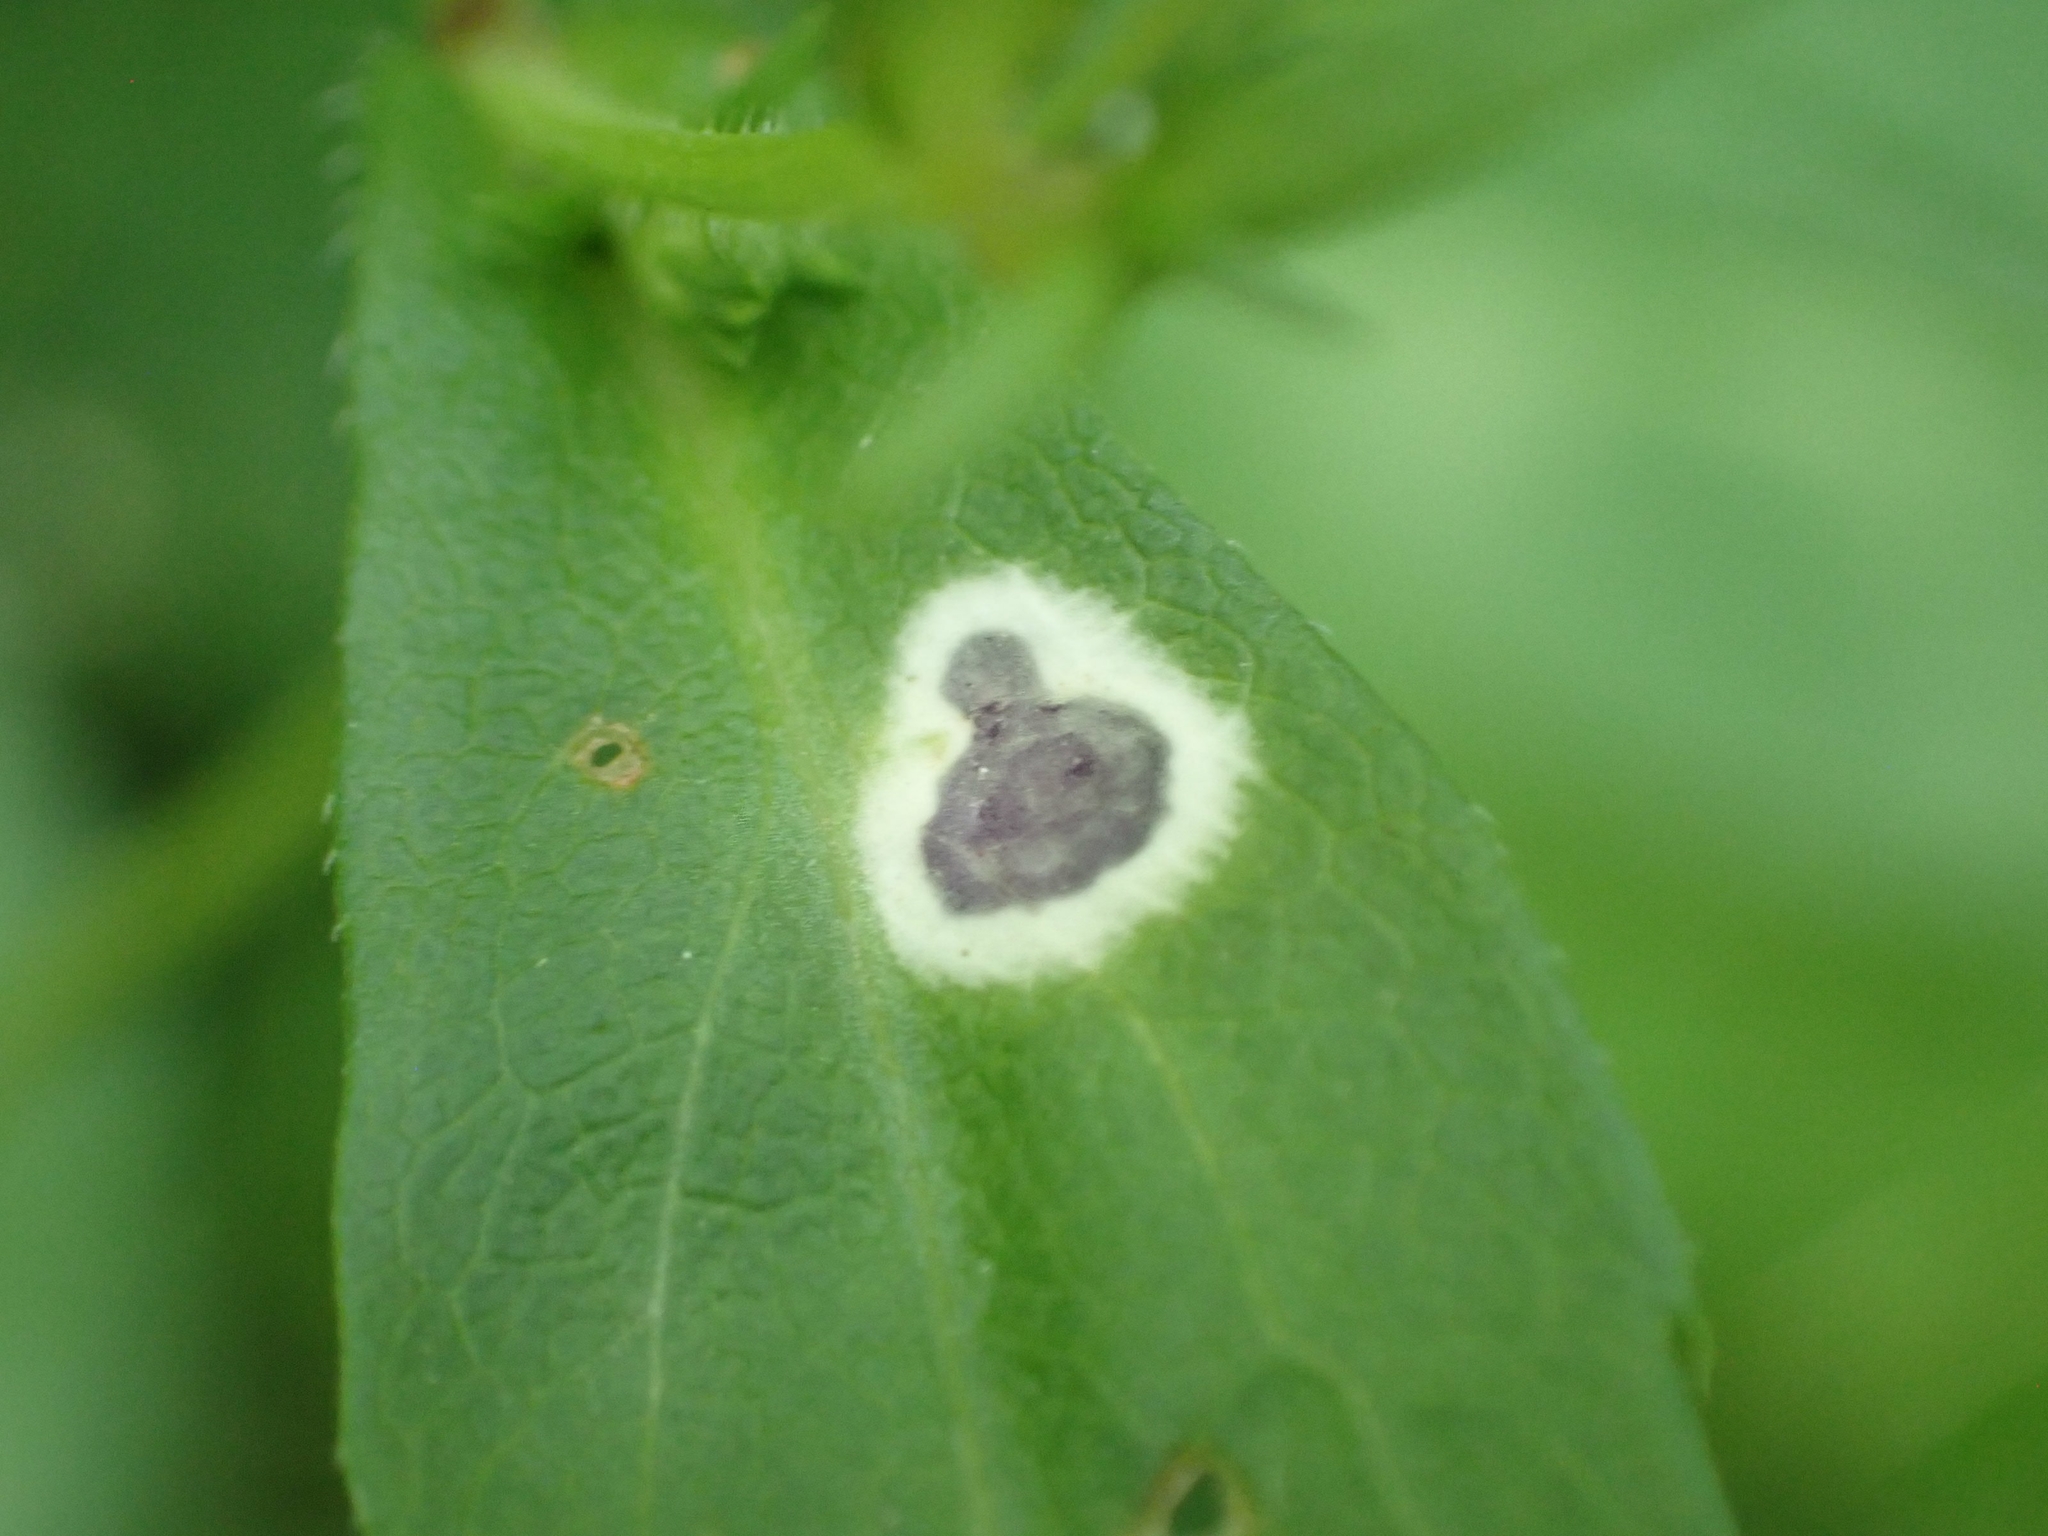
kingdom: Animalia
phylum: Arthropoda
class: Insecta
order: Diptera
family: Cecidomyiidae
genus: Asteromyia
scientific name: Asteromyia carbonifera
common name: Carbonifera goldenrod gall midge
